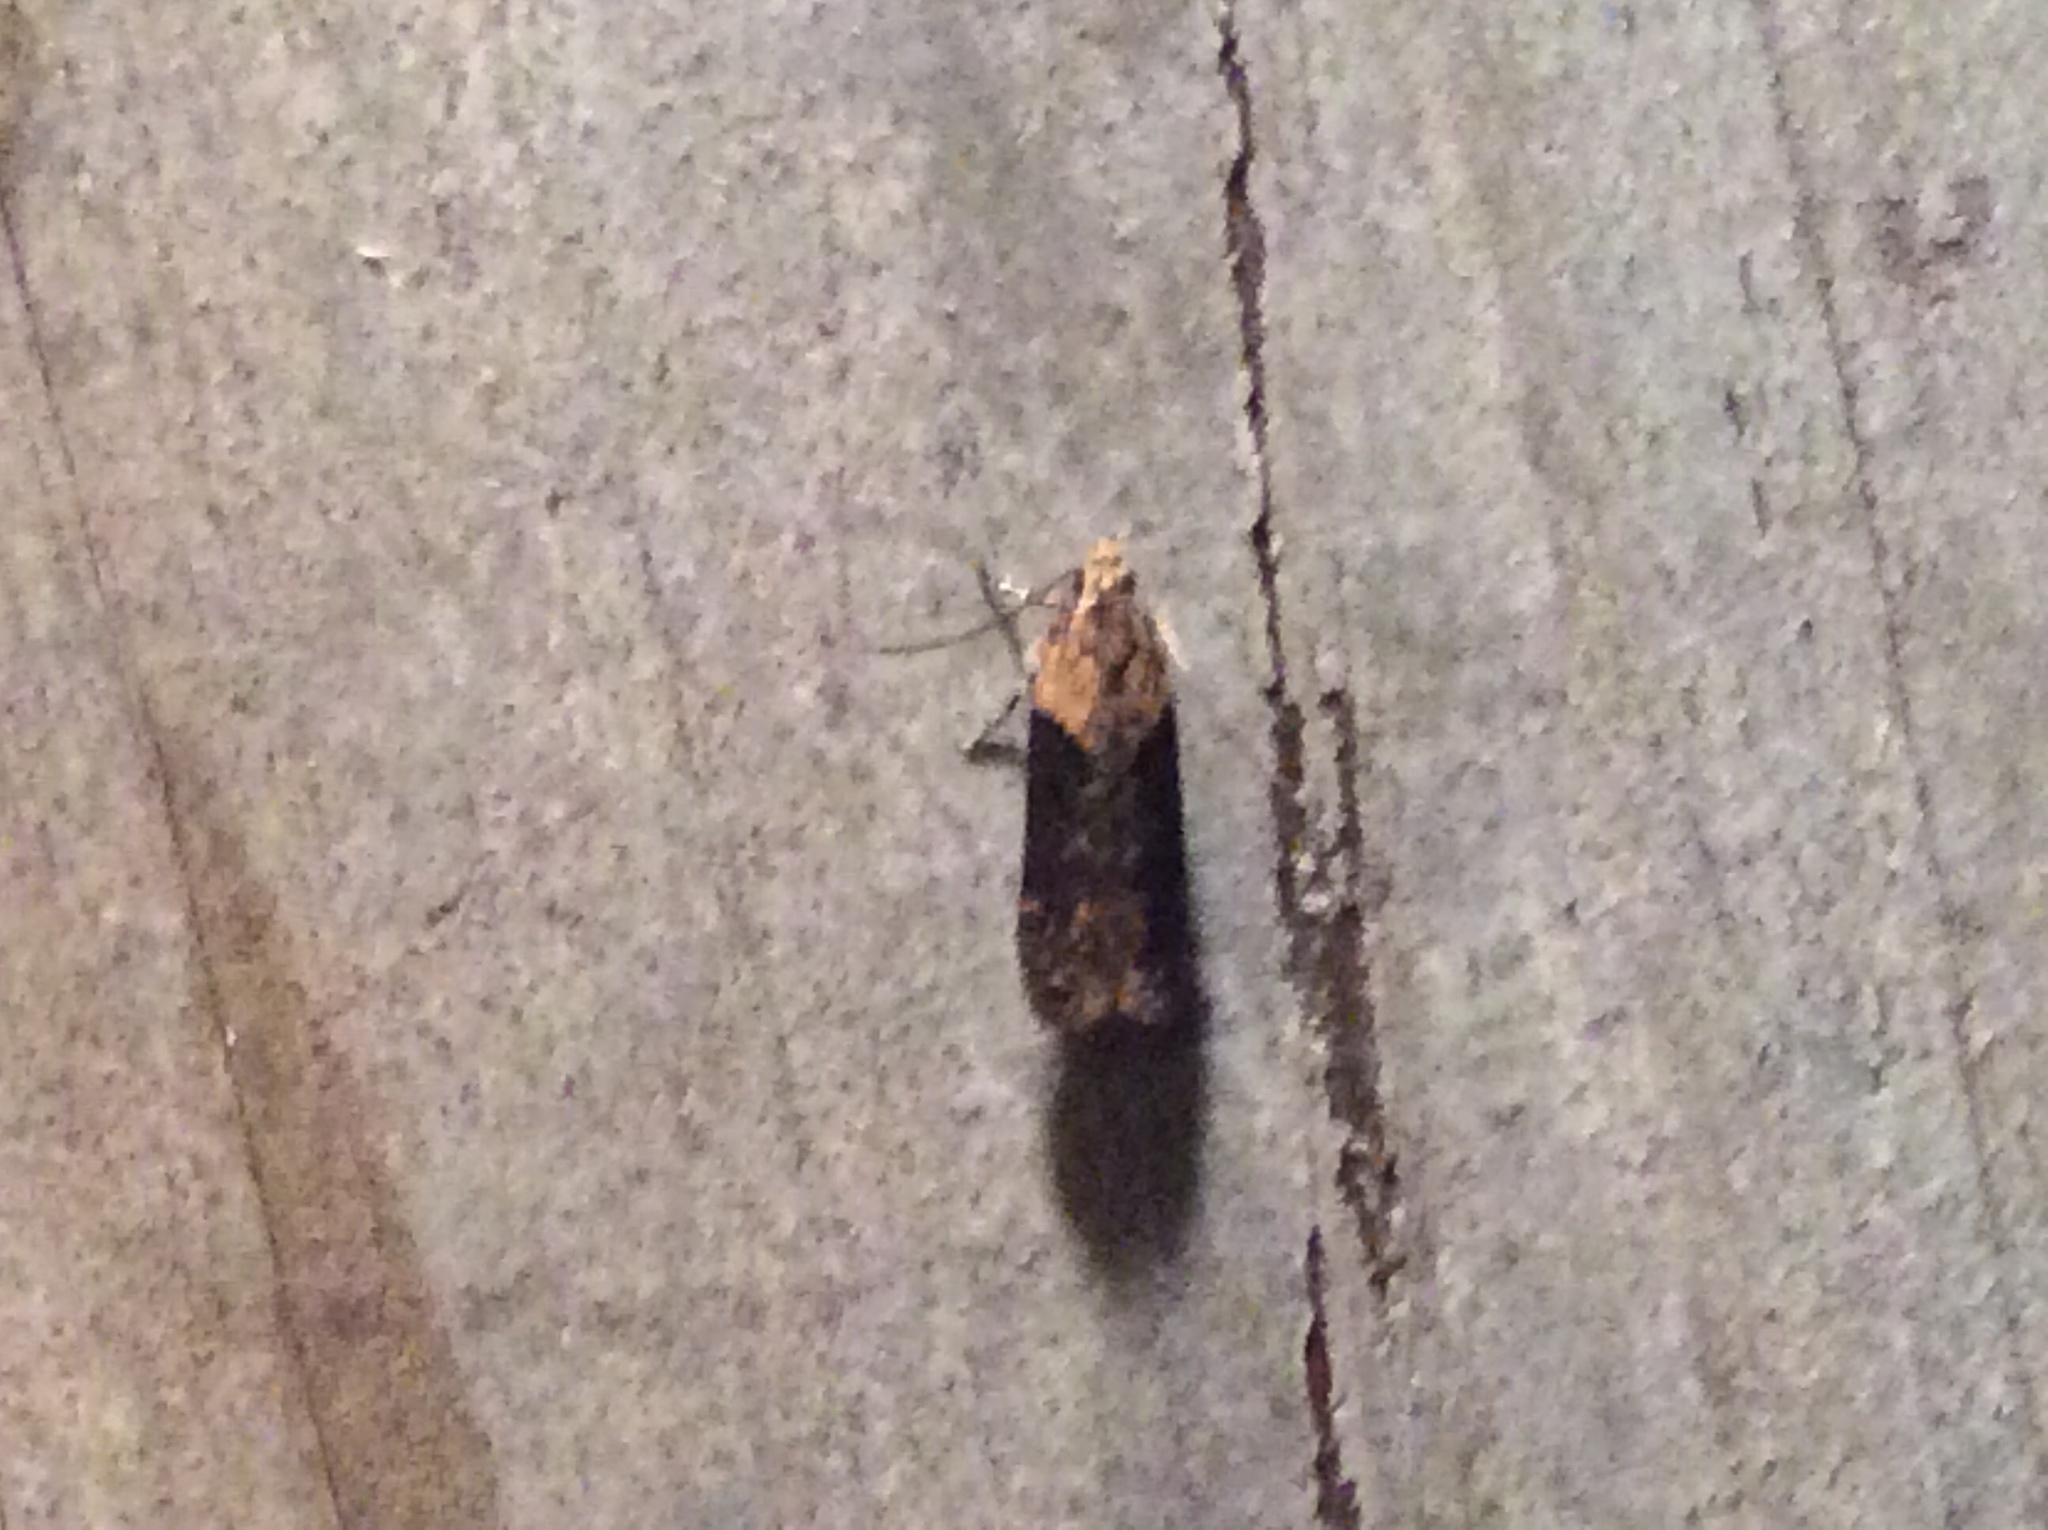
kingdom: Animalia
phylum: Arthropoda
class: Insecta
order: Lepidoptera
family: Gelechiidae
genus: Chionodes
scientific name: Chionodes mediofuscella
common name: Black-smudged chionodes moth
